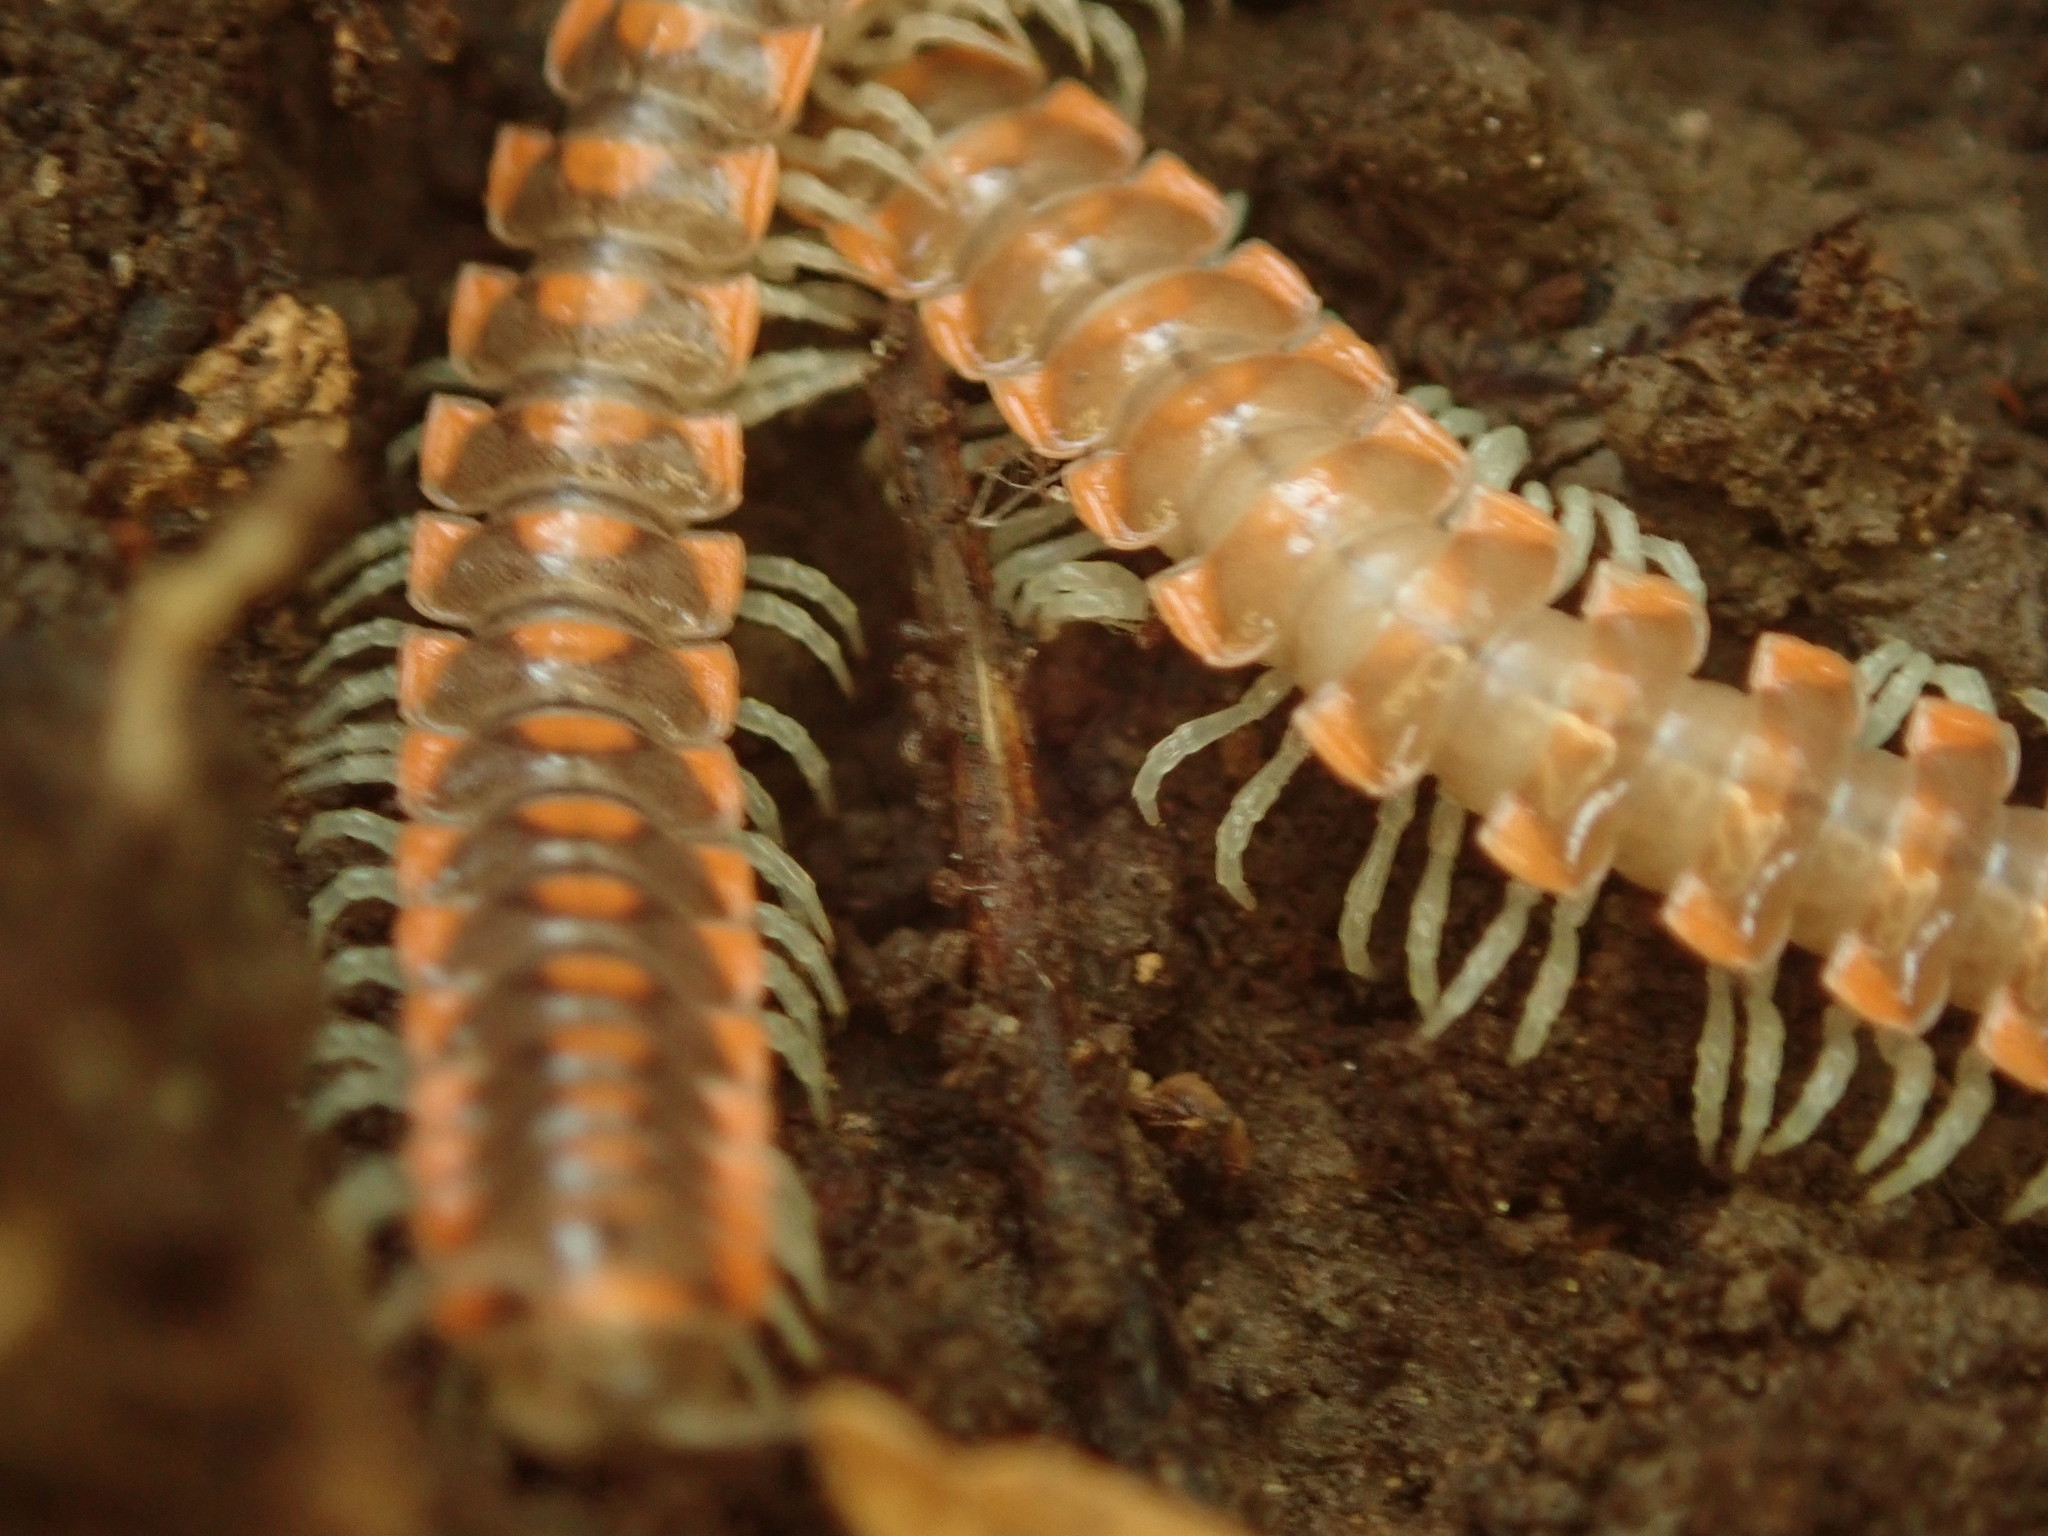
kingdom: Animalia
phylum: Arthropoda
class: Diplopoda
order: Polydesmida
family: Xystodesmidae
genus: Euryurus
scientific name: Euryurus leachii
